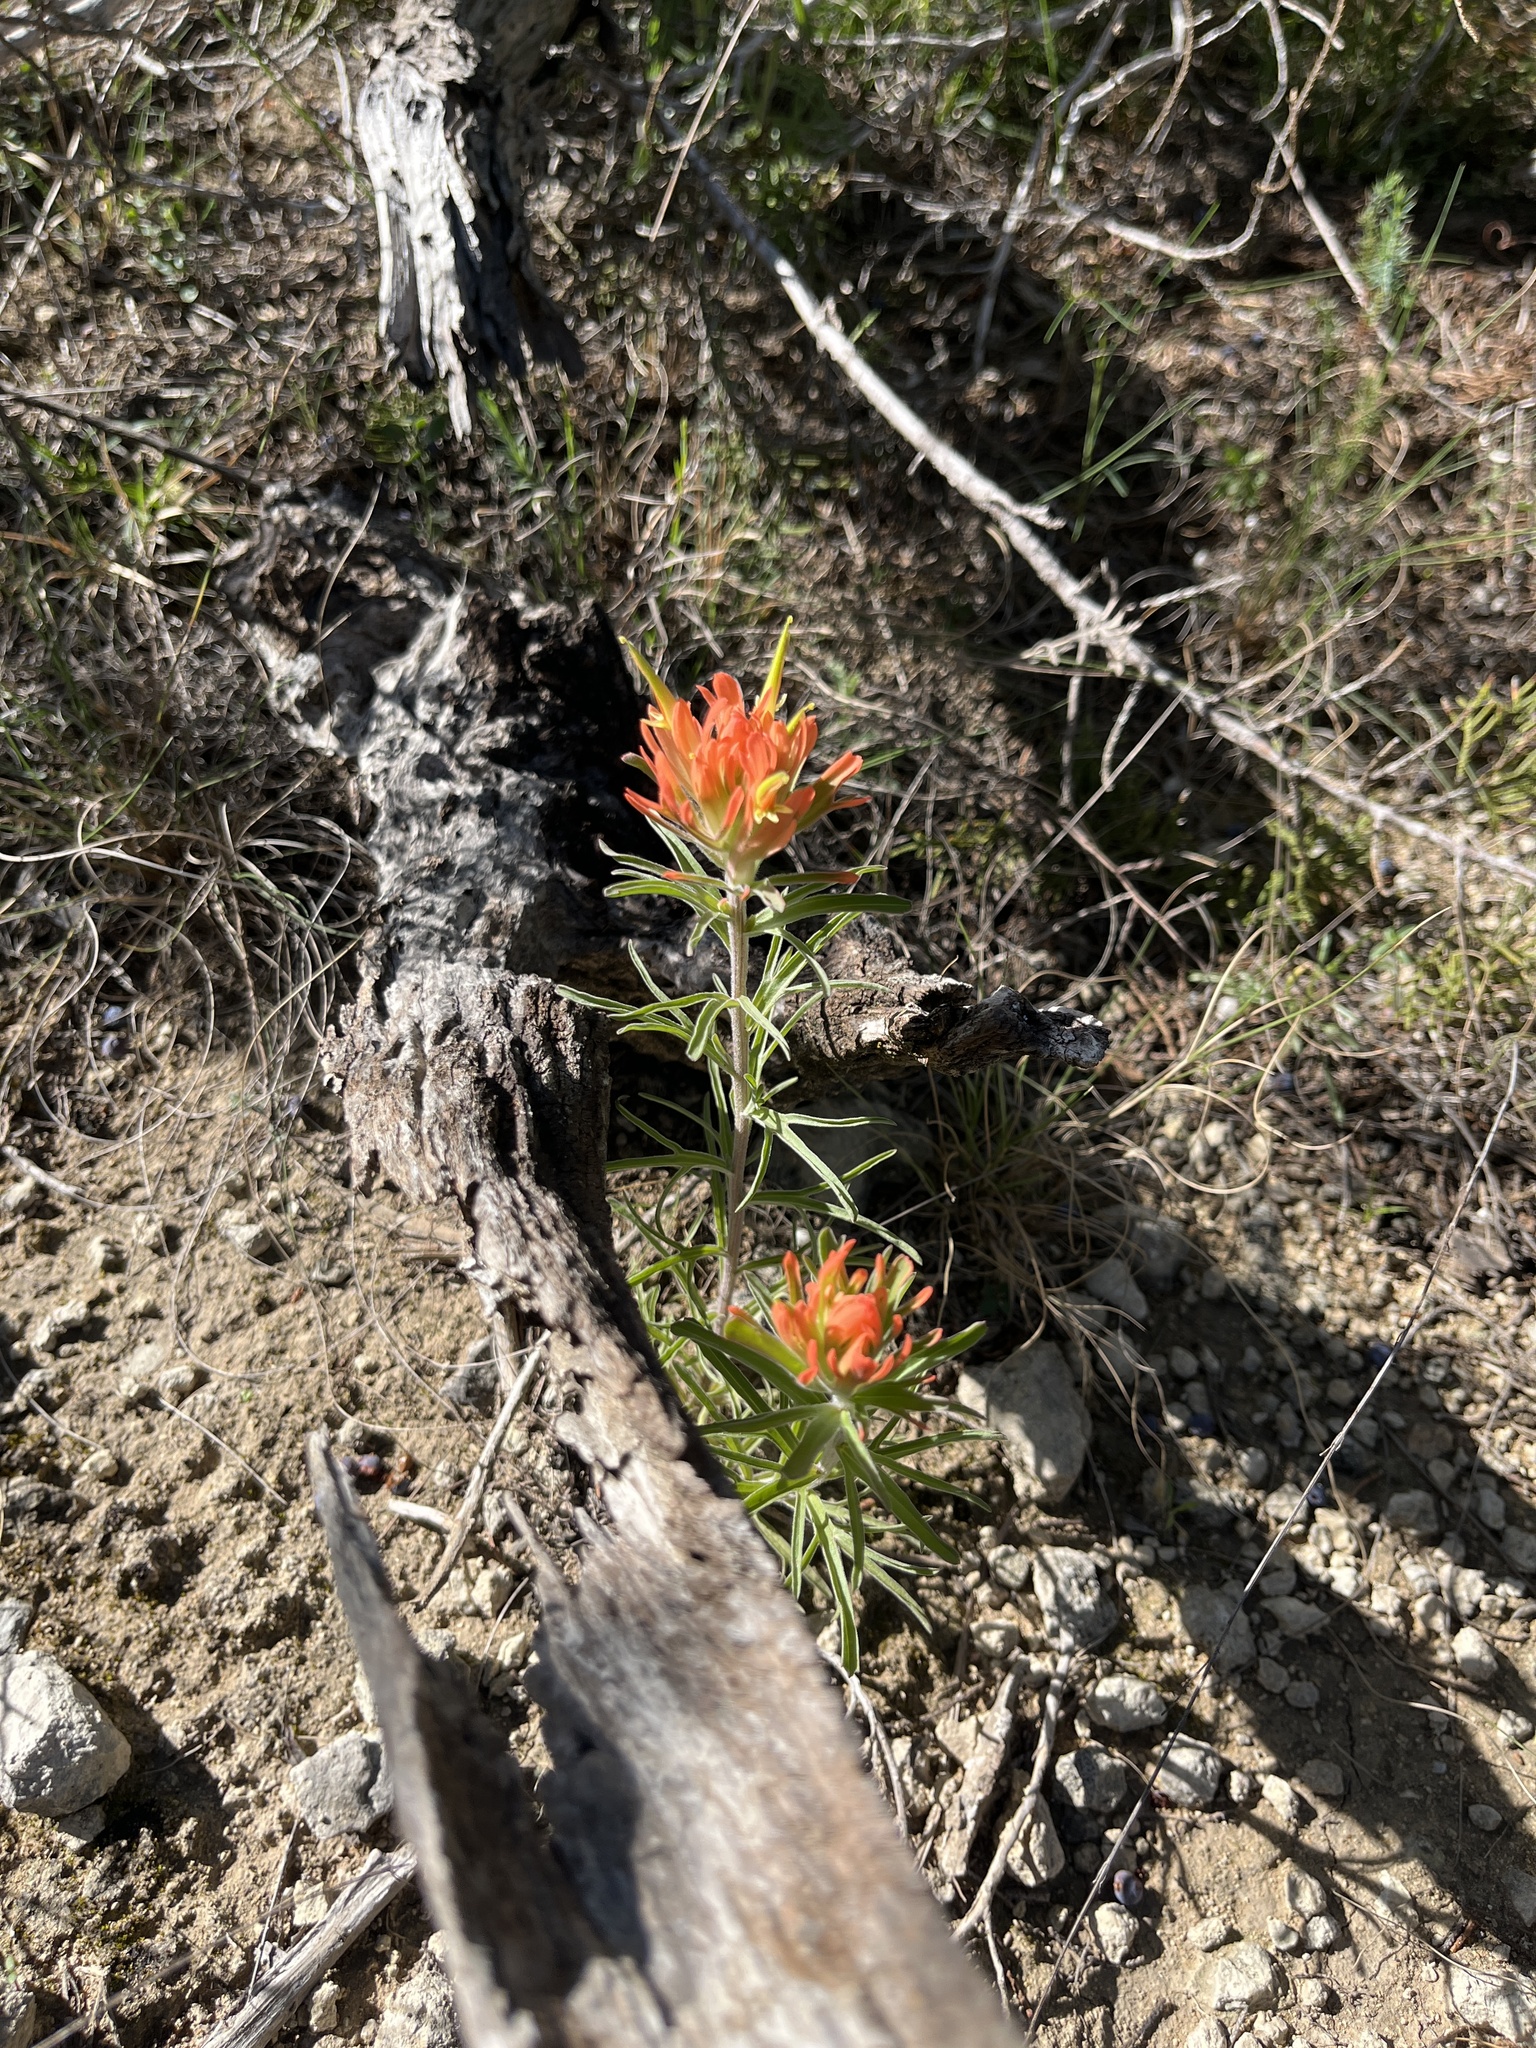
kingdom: Plantae
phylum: Tracheophyta
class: Magnoliopsida
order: Lamiales
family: Orobanchaceae
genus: Castilleja
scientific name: Castilleja lindheimeri
